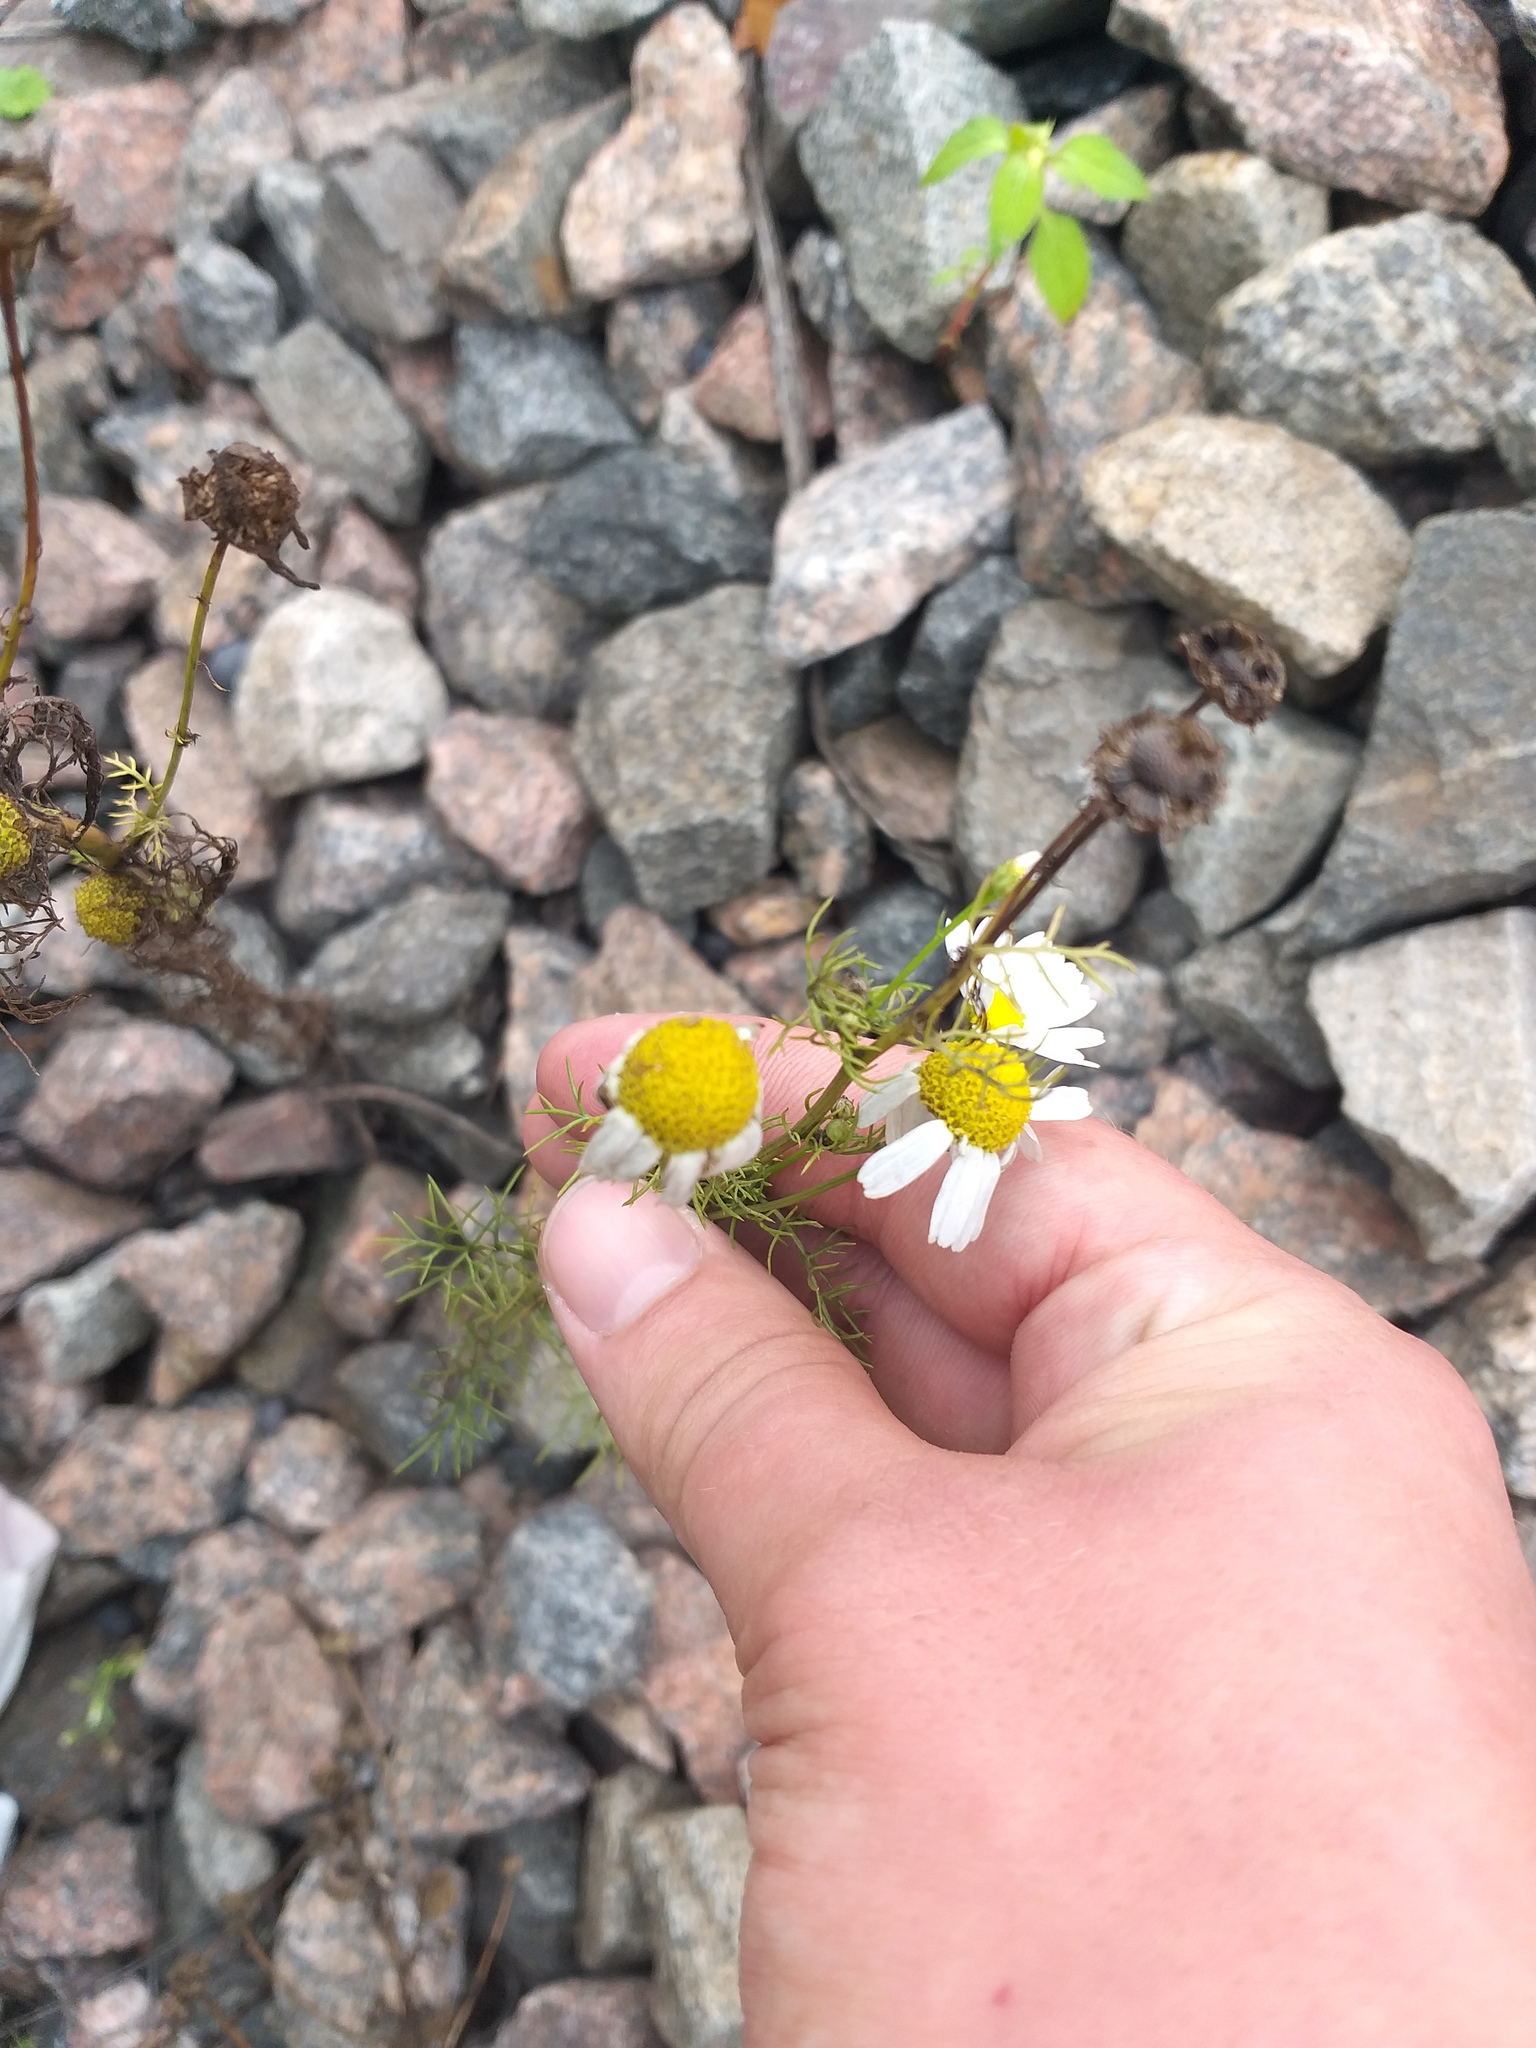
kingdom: Plantae
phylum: Tracheophyta
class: Magnoliopsida
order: Asterales
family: Asteraceae
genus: Tripleurospermum
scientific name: Tripleurospermum inodorum
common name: Scentless mayweed
